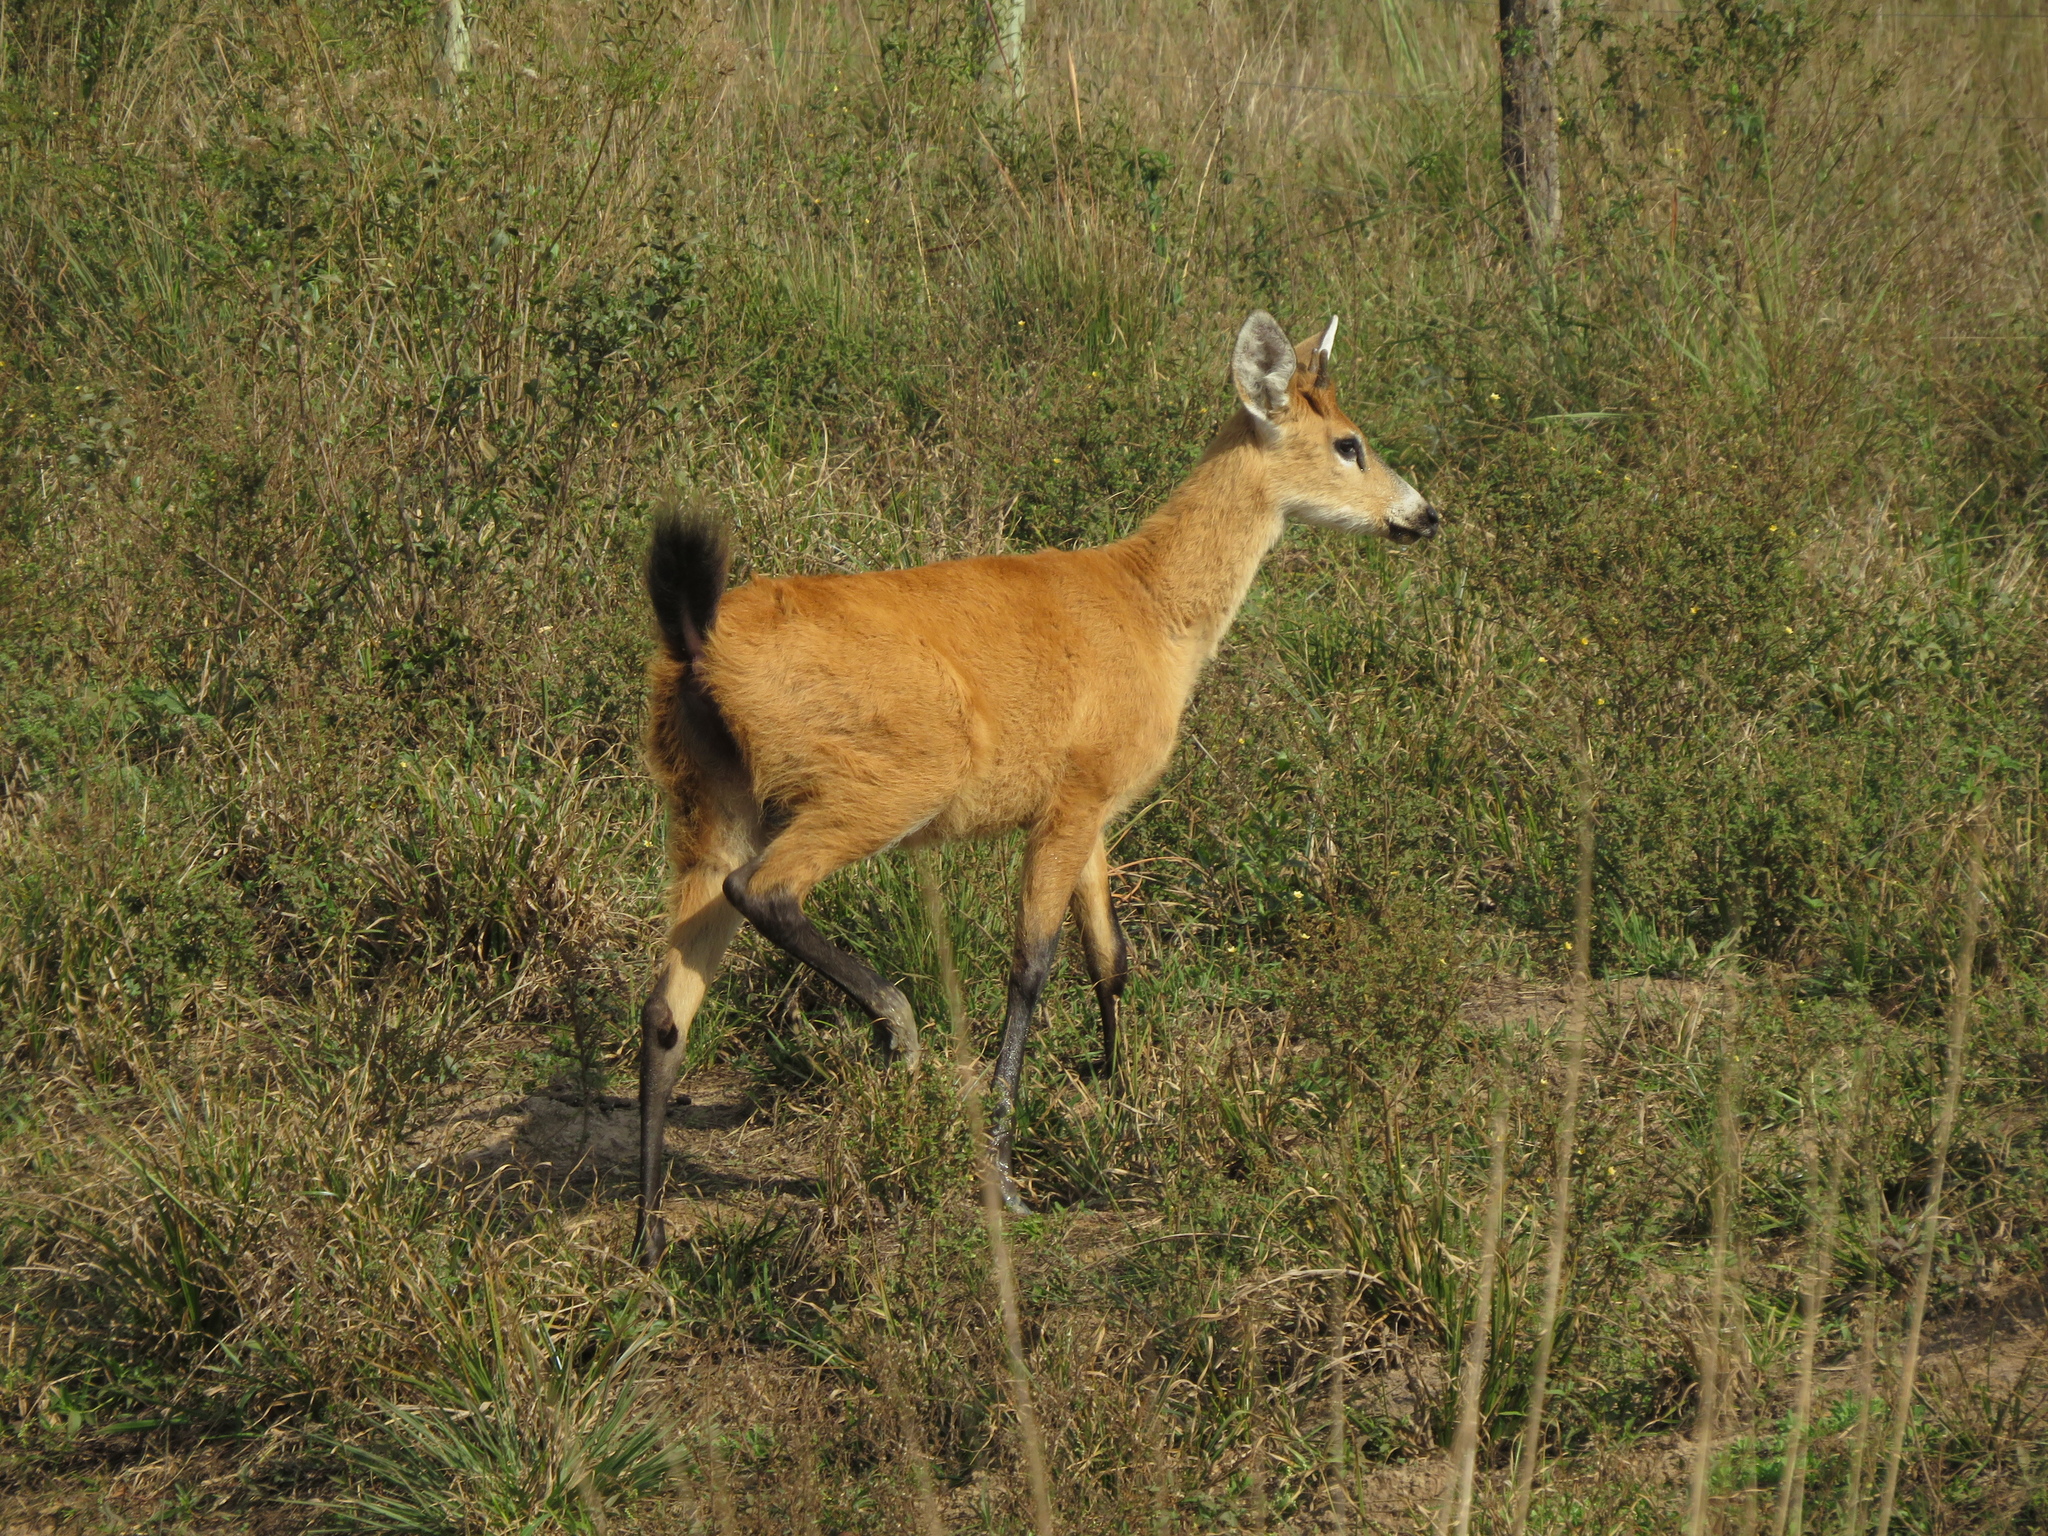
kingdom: Animalia
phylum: Chordata
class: Mammalia
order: Artiodactyla
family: Cervidae
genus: Blastocerus
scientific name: Blastocerus dichotomus
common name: Marsh deer
